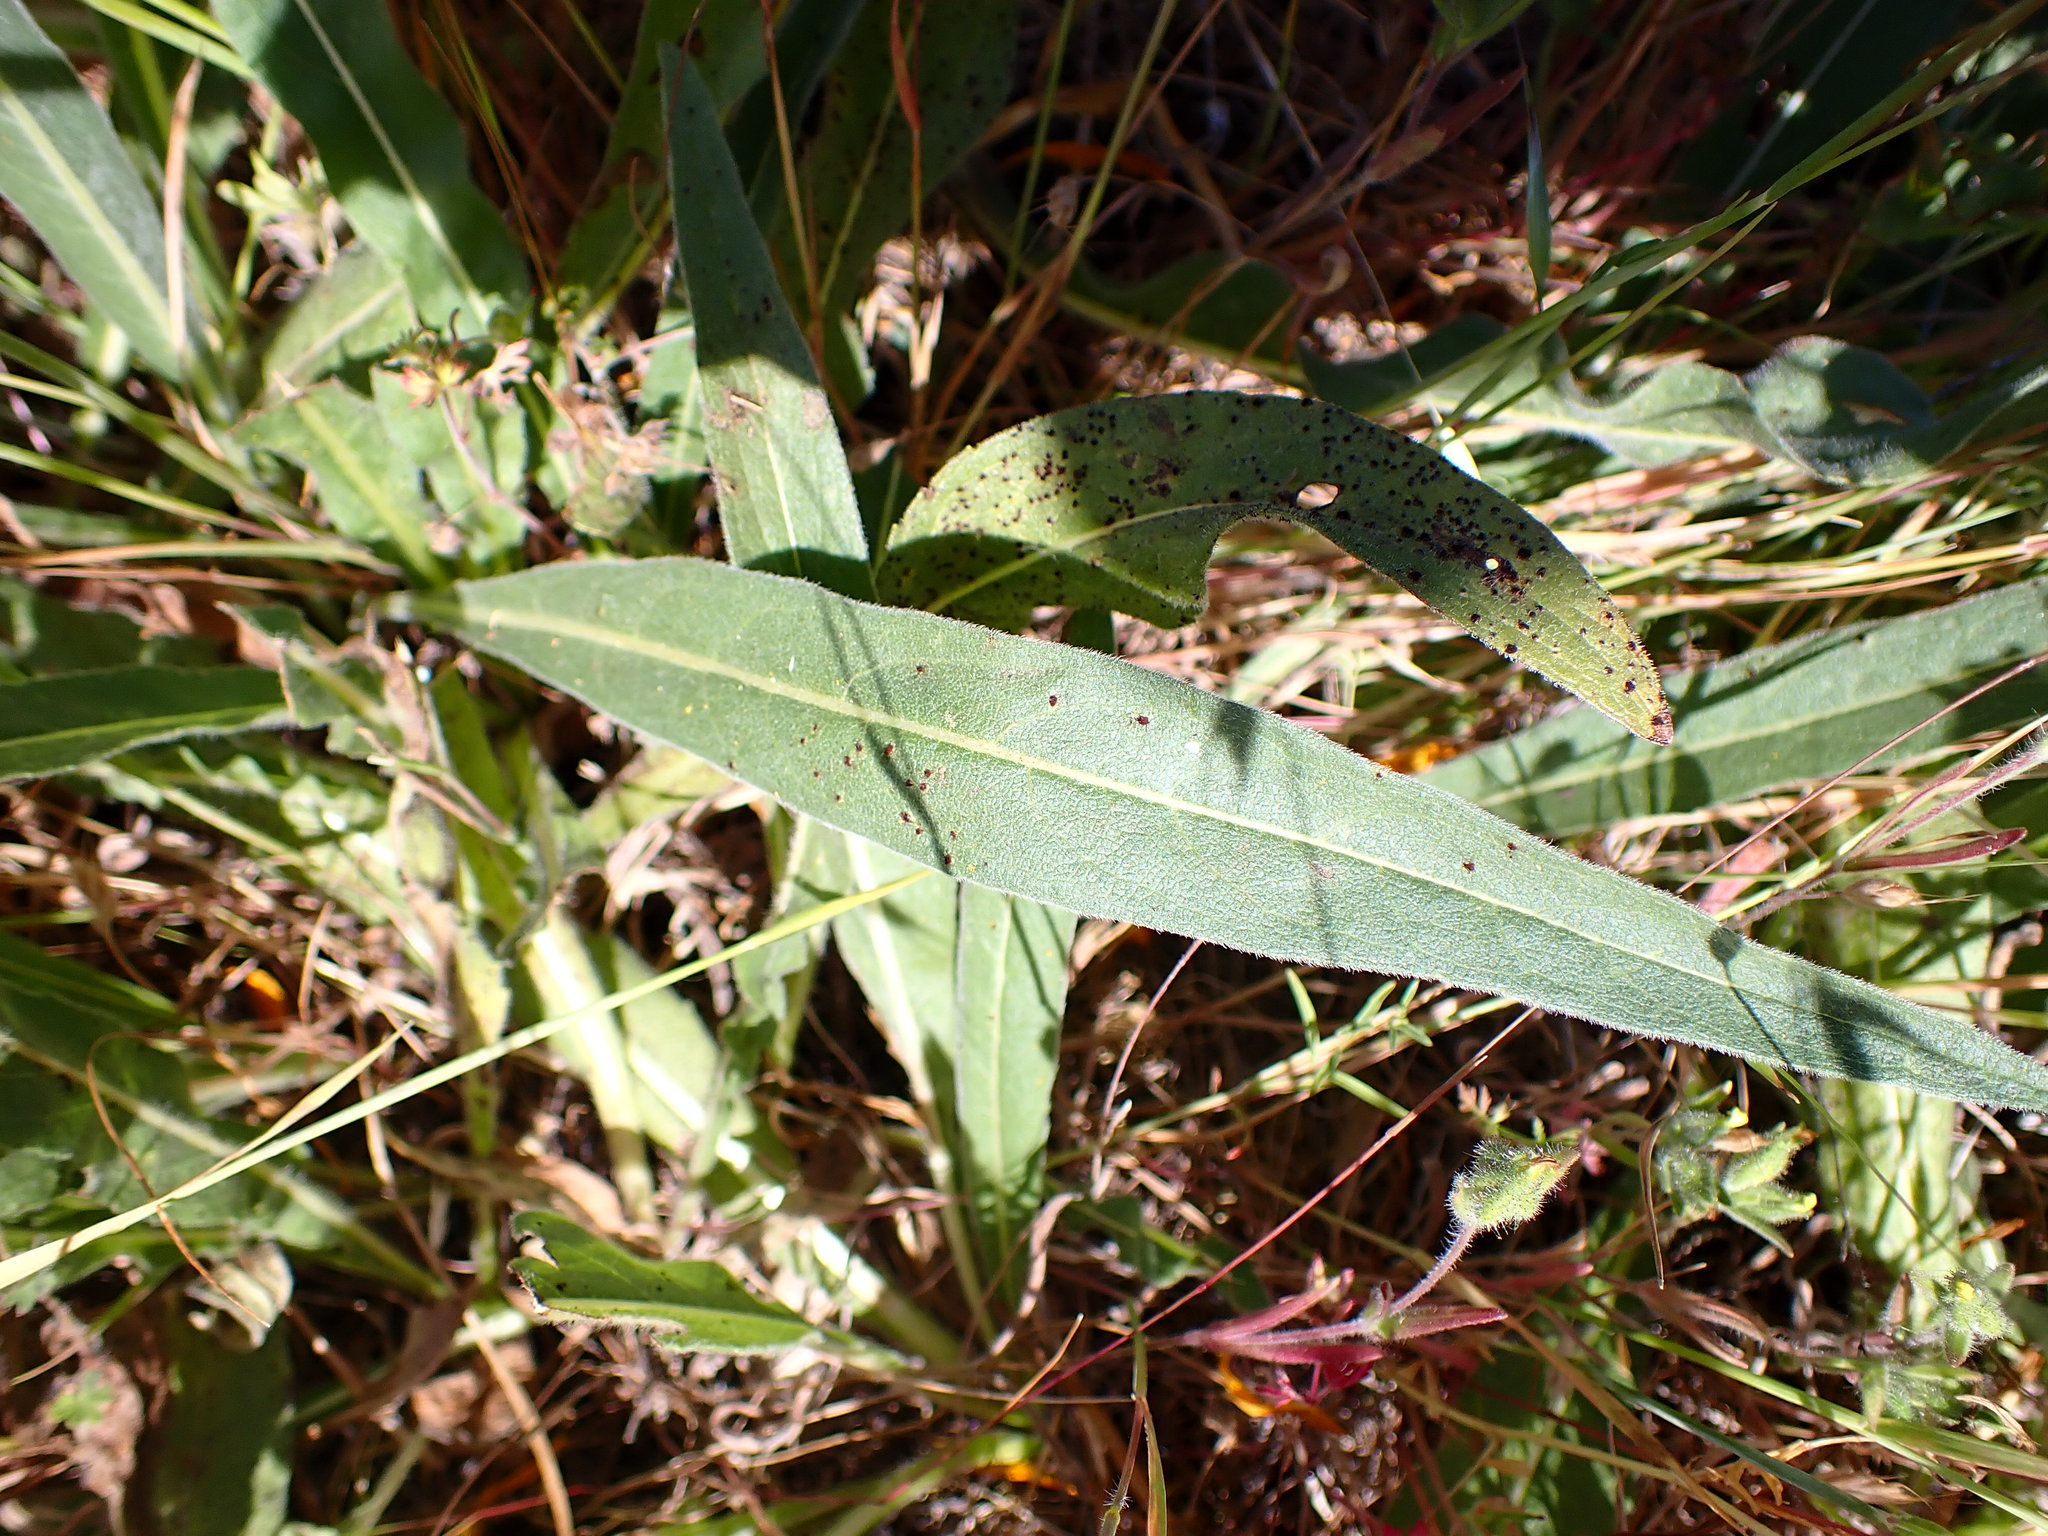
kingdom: Plantae
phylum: Tracheophyta
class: Magnoliopsida
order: Asterales
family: Asteraceae
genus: Wyethia
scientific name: Wyethia angustifolia
